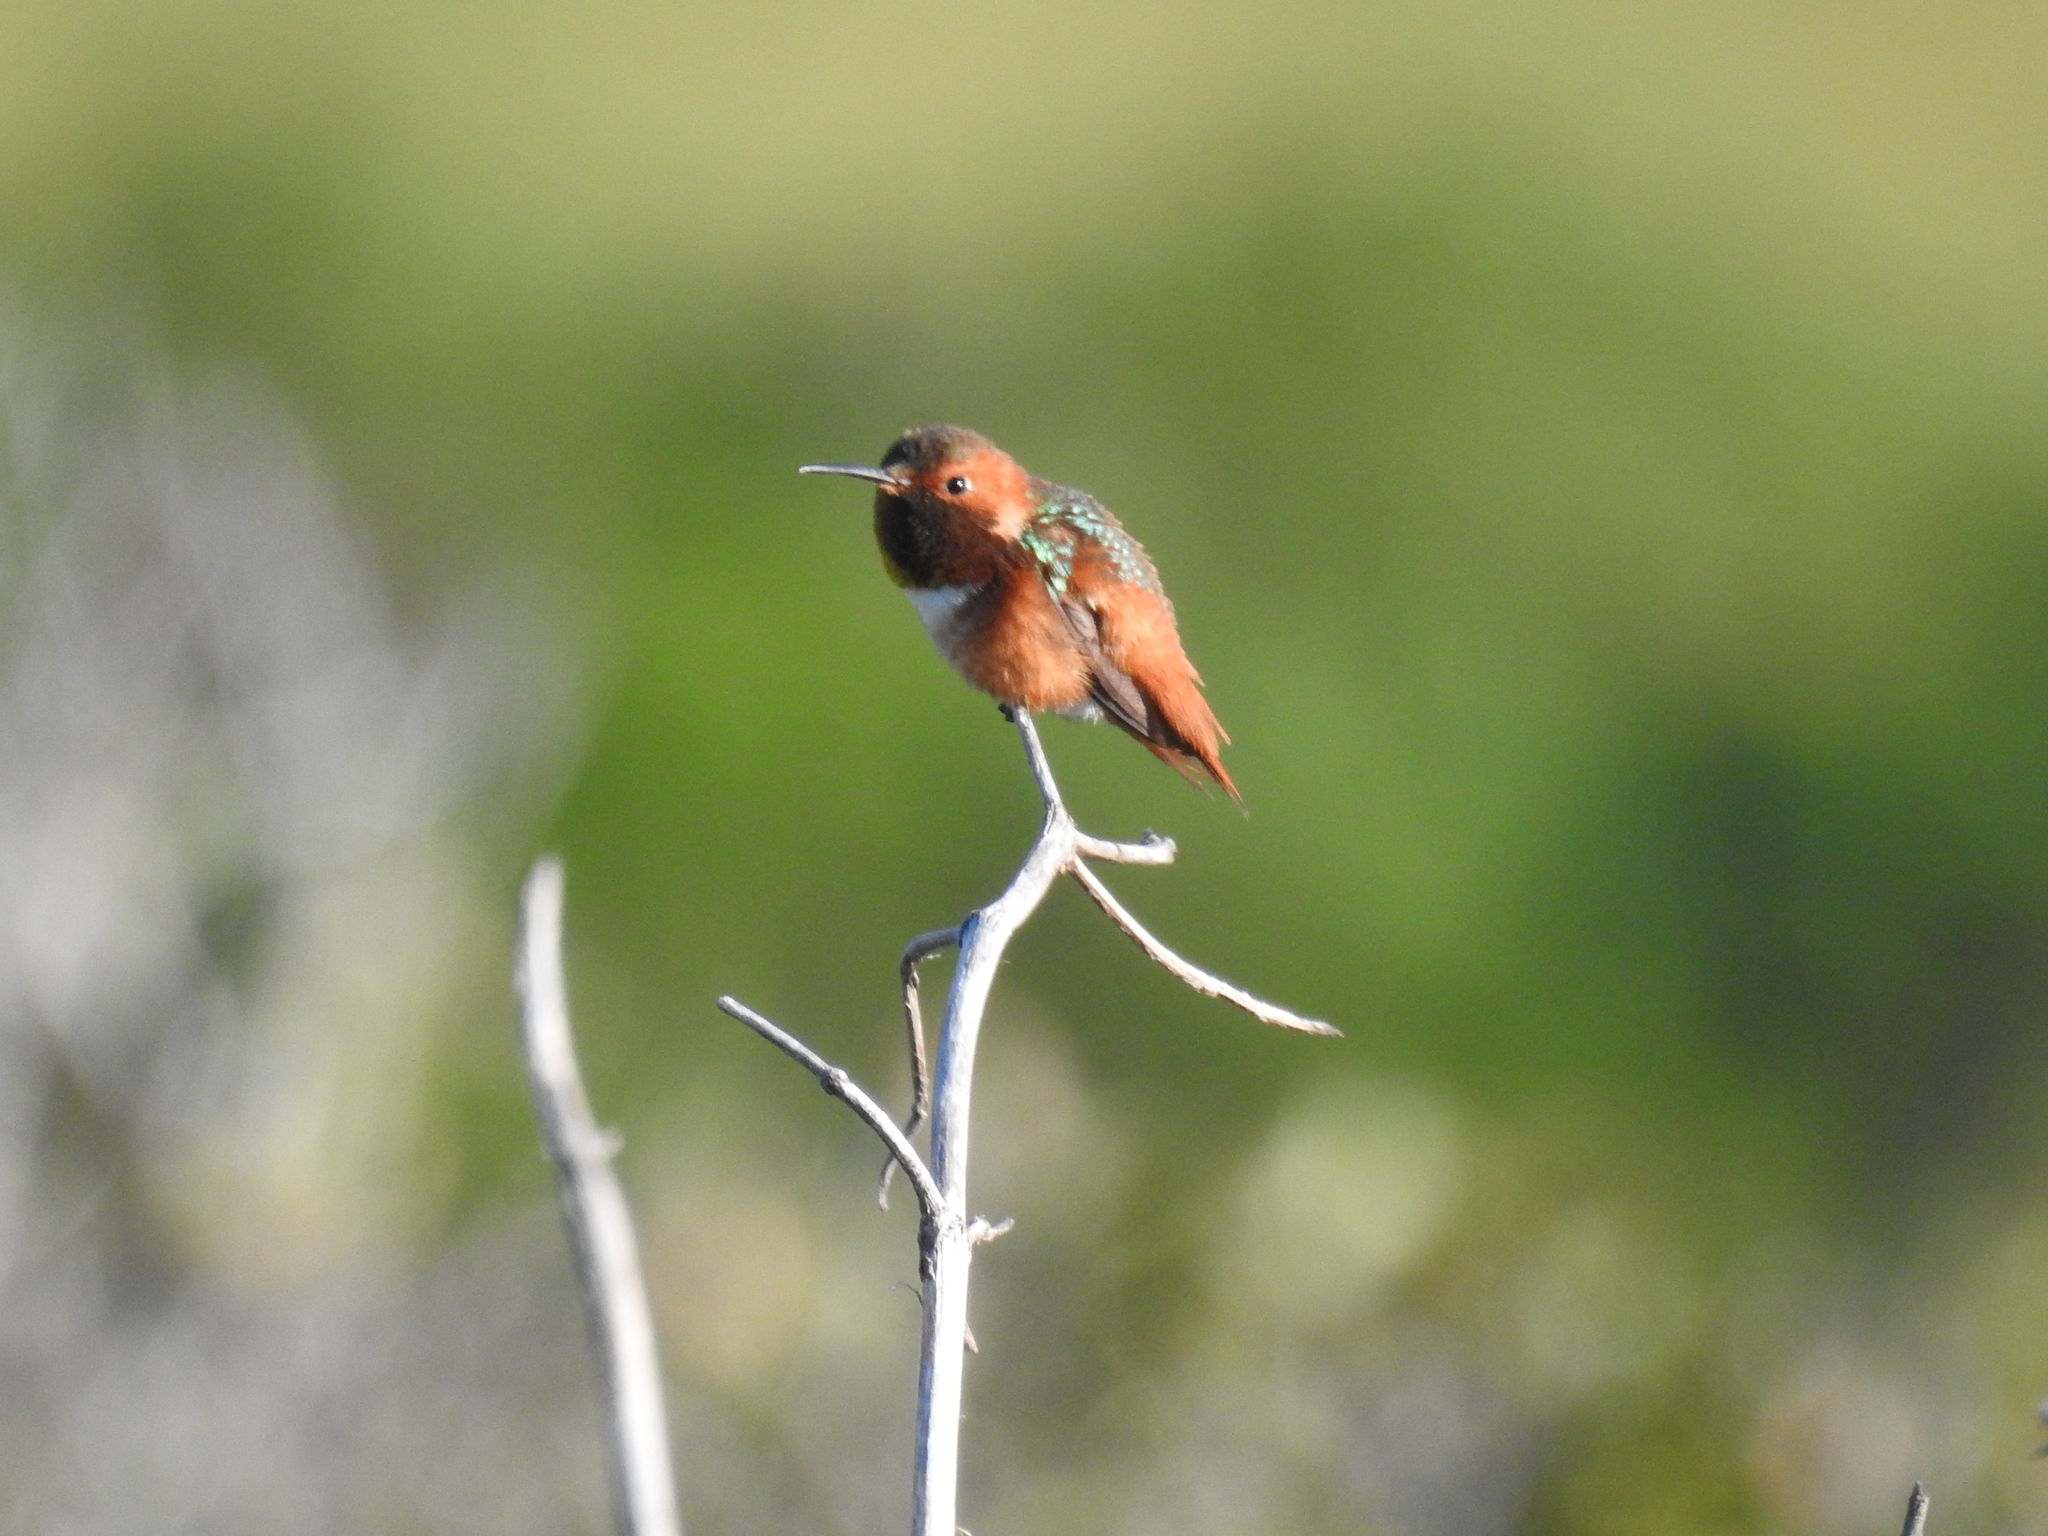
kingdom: Animalia
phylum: Chordata
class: Aves
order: Apodiformes
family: Trochilidae
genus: Selasphorus
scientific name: Selasphorus sasin
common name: Allen's hummingbird
